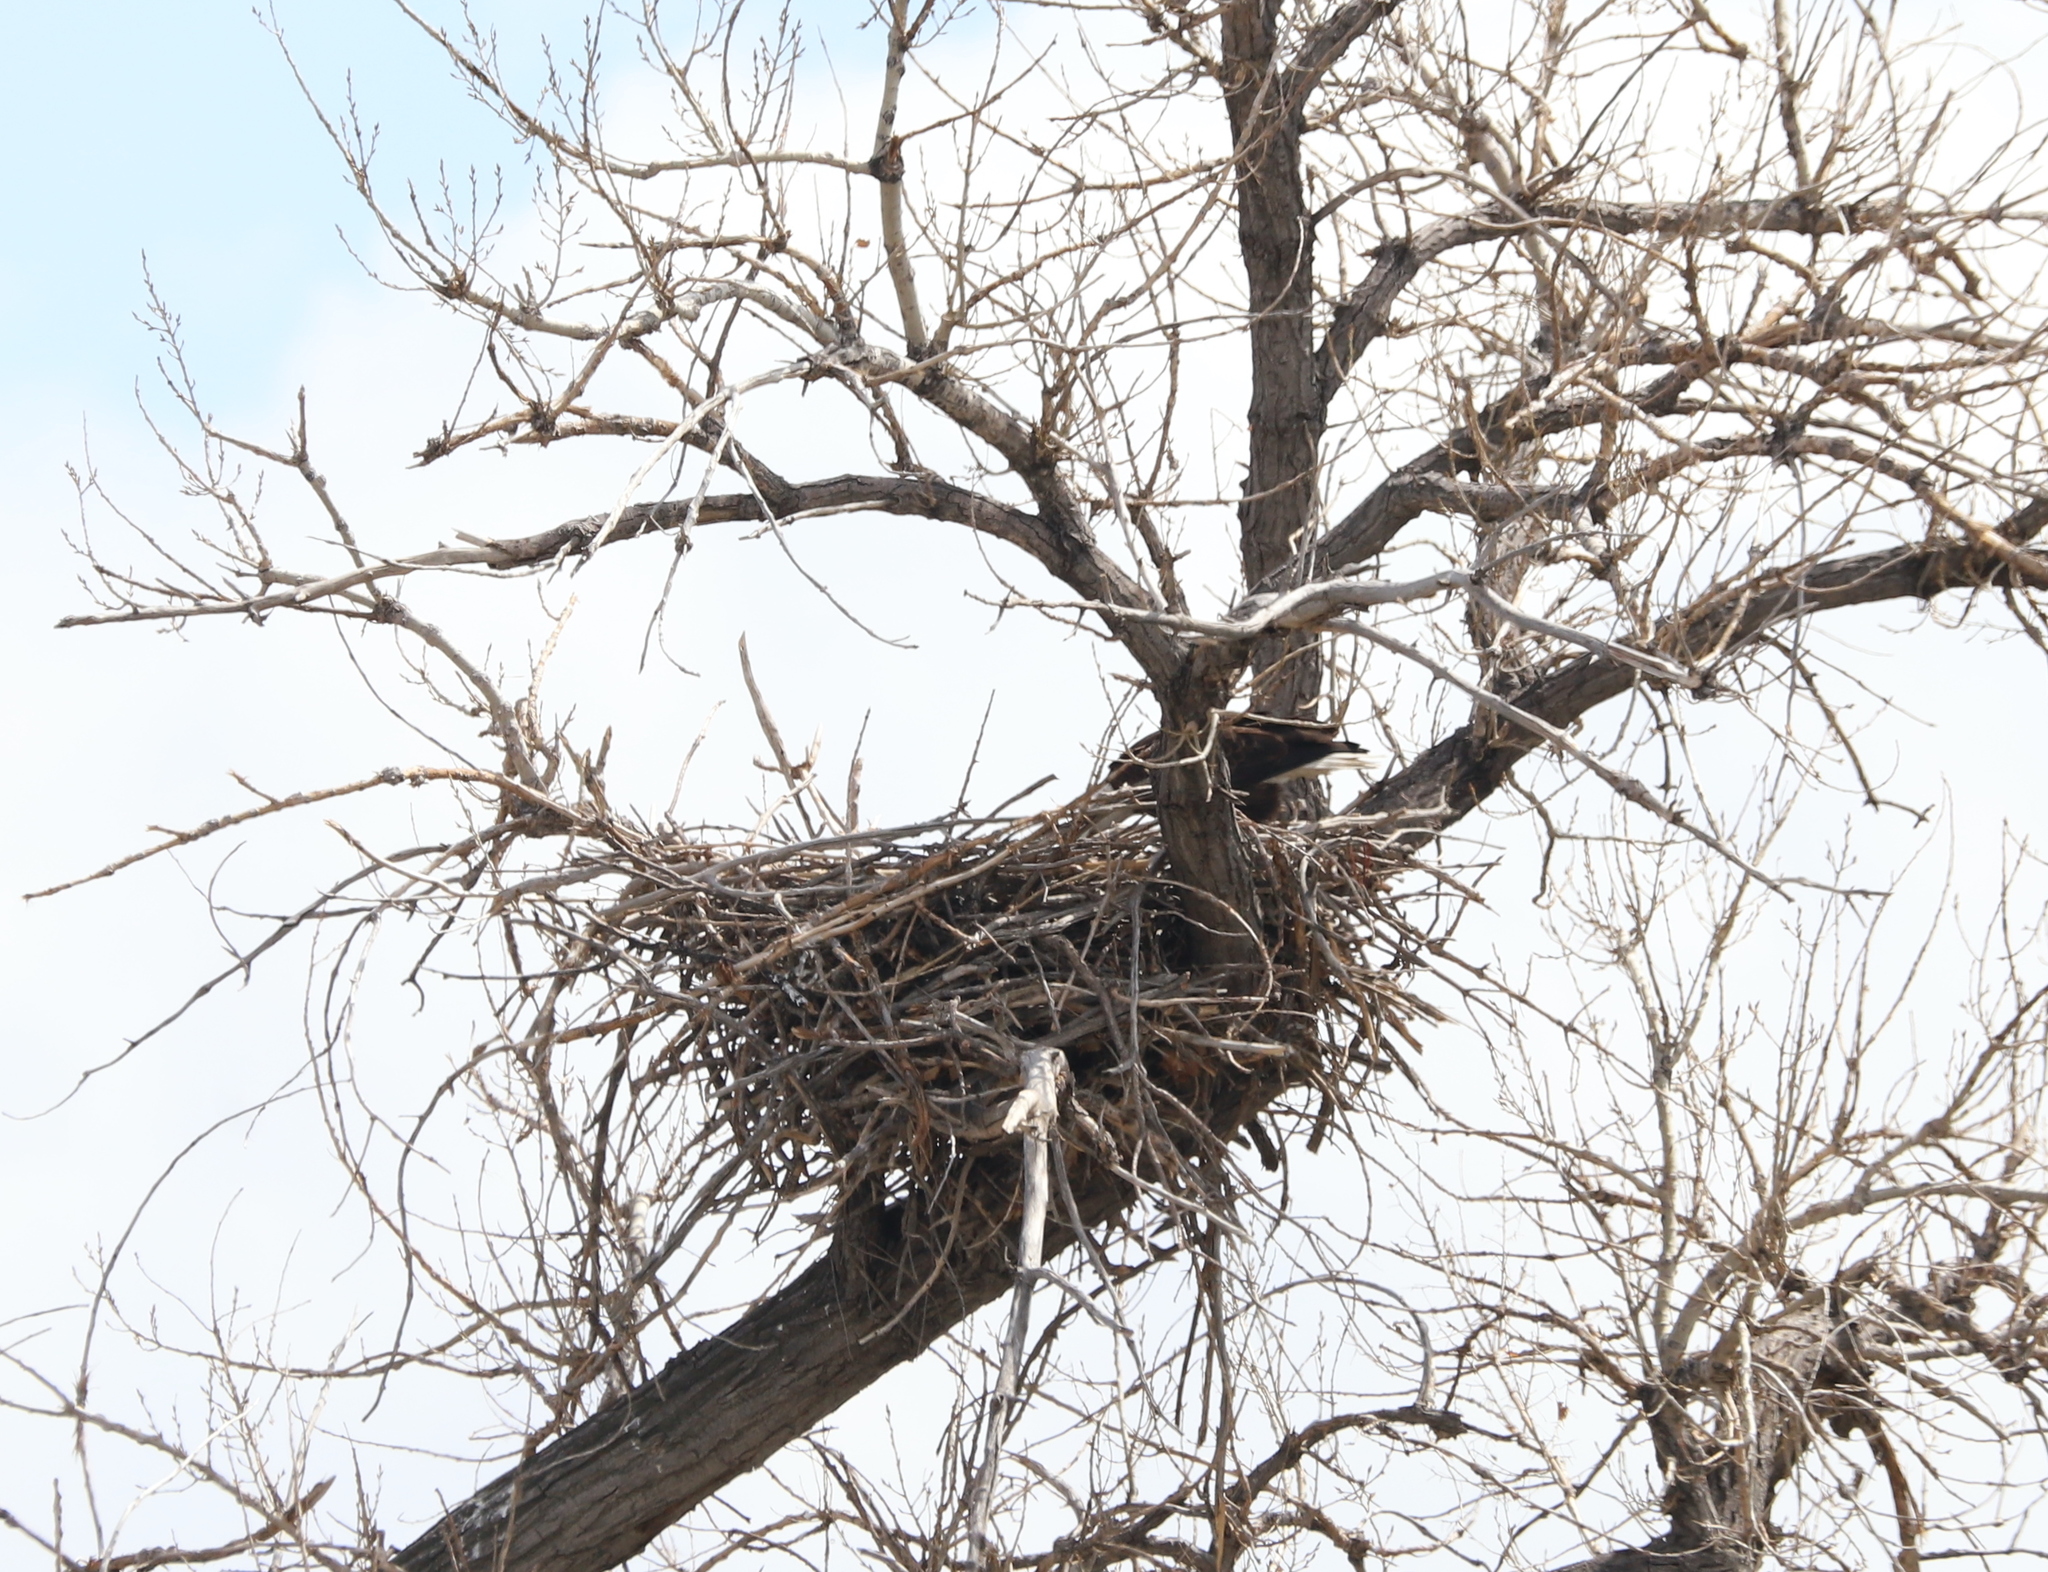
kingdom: Animalia
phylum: Chordata
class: Aves
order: Accipitriformes
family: Accipitridae
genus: Haliaeetus
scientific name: Haliaeetus leucocephalus
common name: Bald eagle
